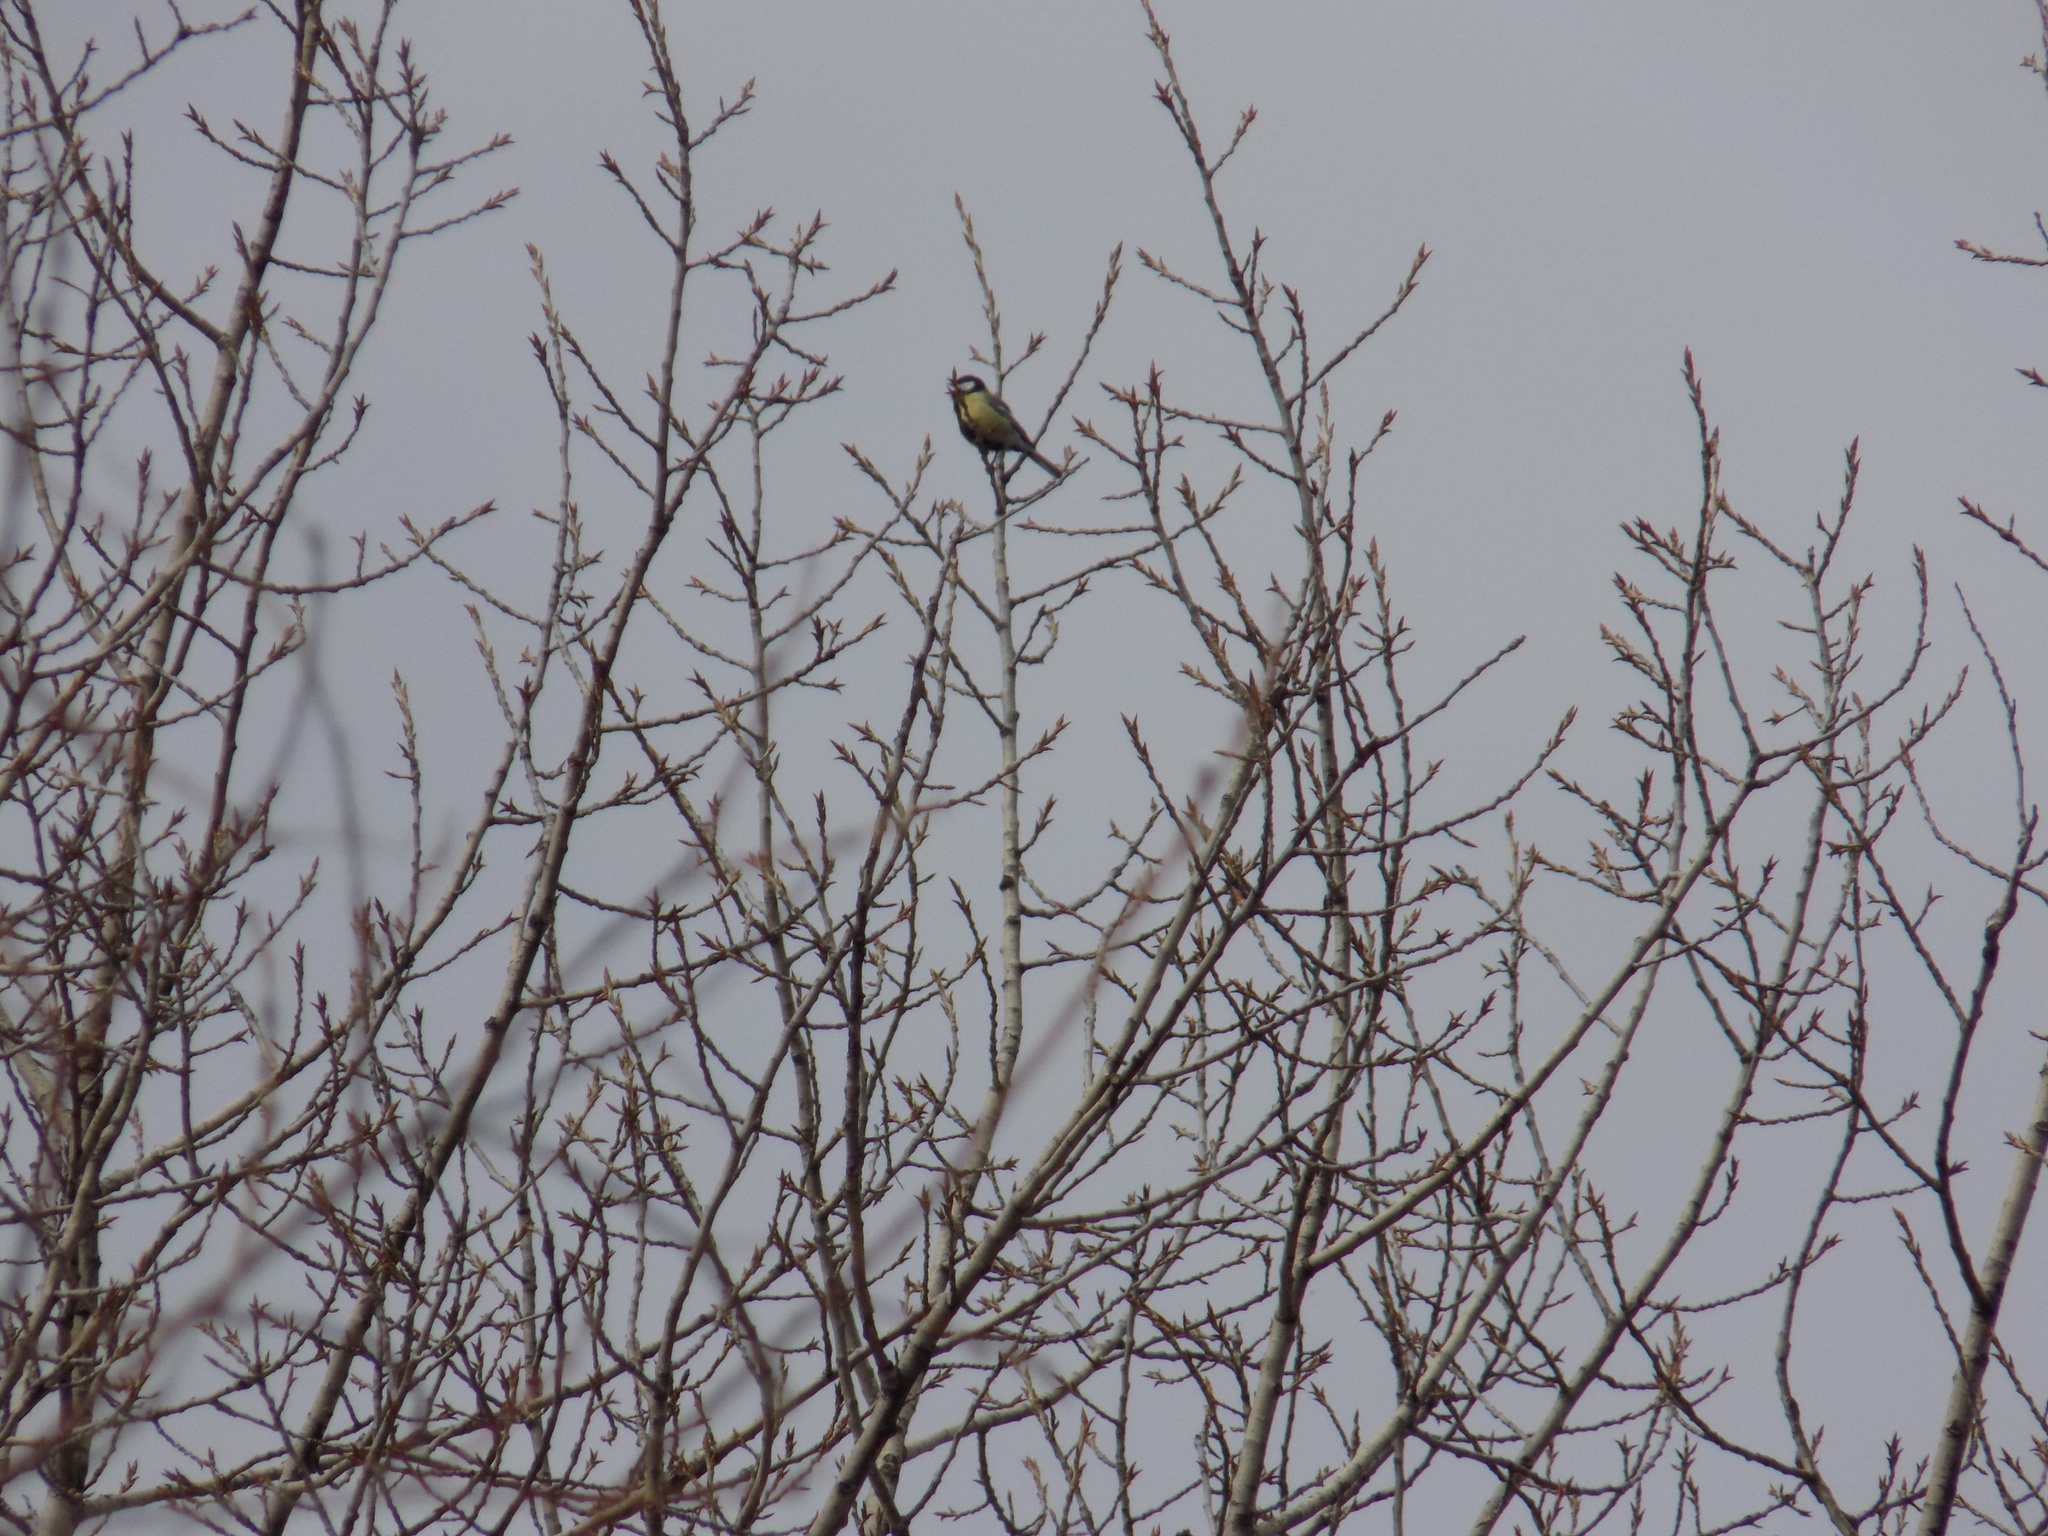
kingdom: Animalia
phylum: Chordata
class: Aves
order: Passeriformes
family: Paridae
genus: Parus
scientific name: Parus major
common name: Great tit
